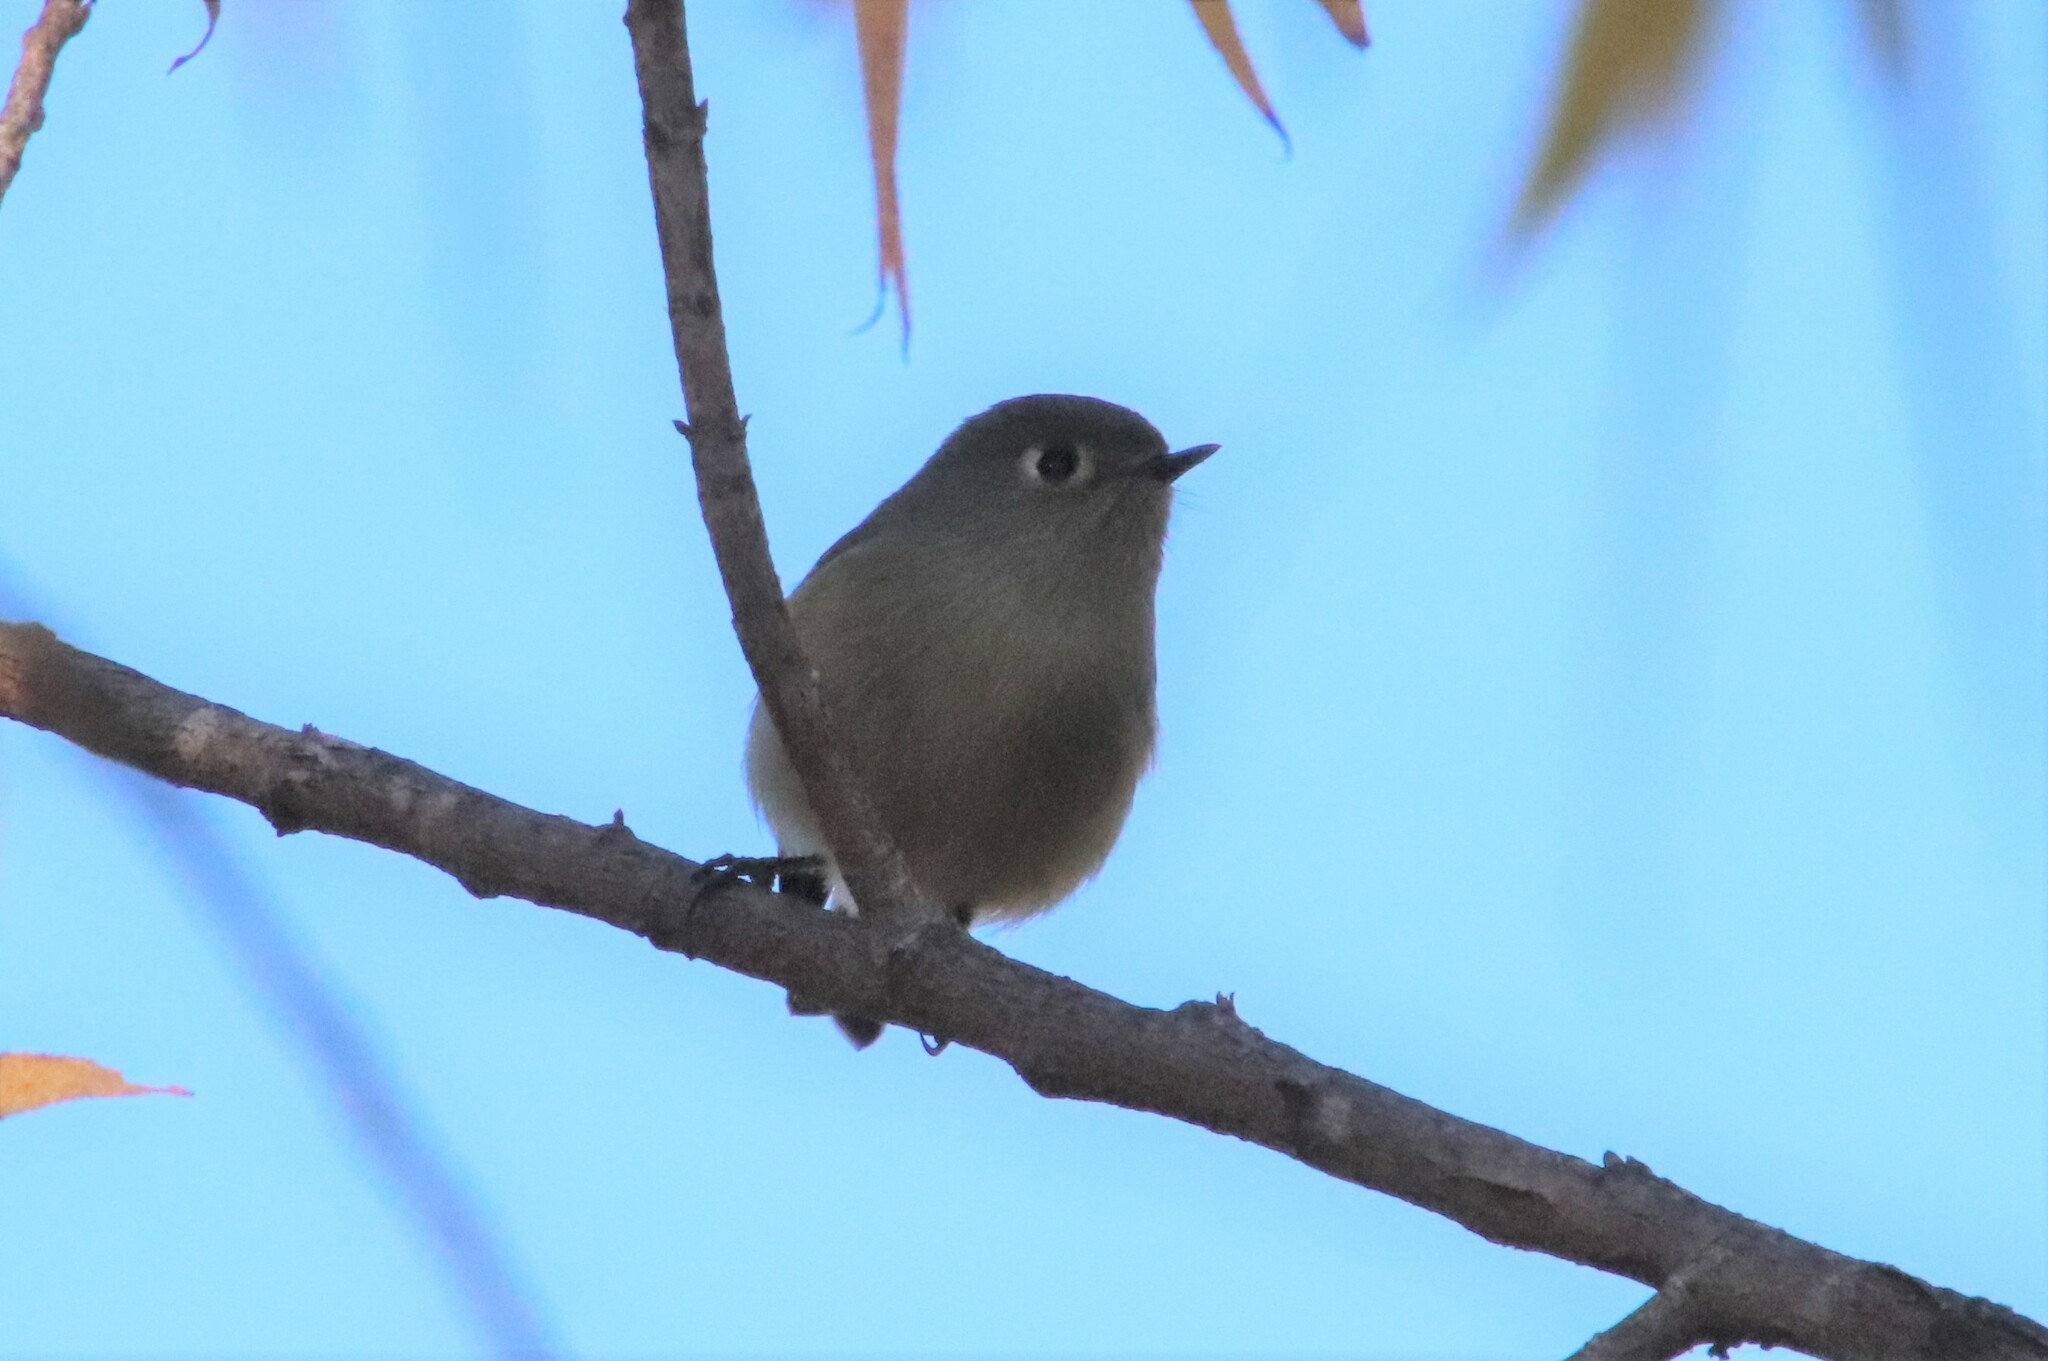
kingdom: Animalia
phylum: Chordata
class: Aves
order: Passeriformes
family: Regulidae
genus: Regulus
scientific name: Regulus calendula
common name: Ruby-crowned kinglet
